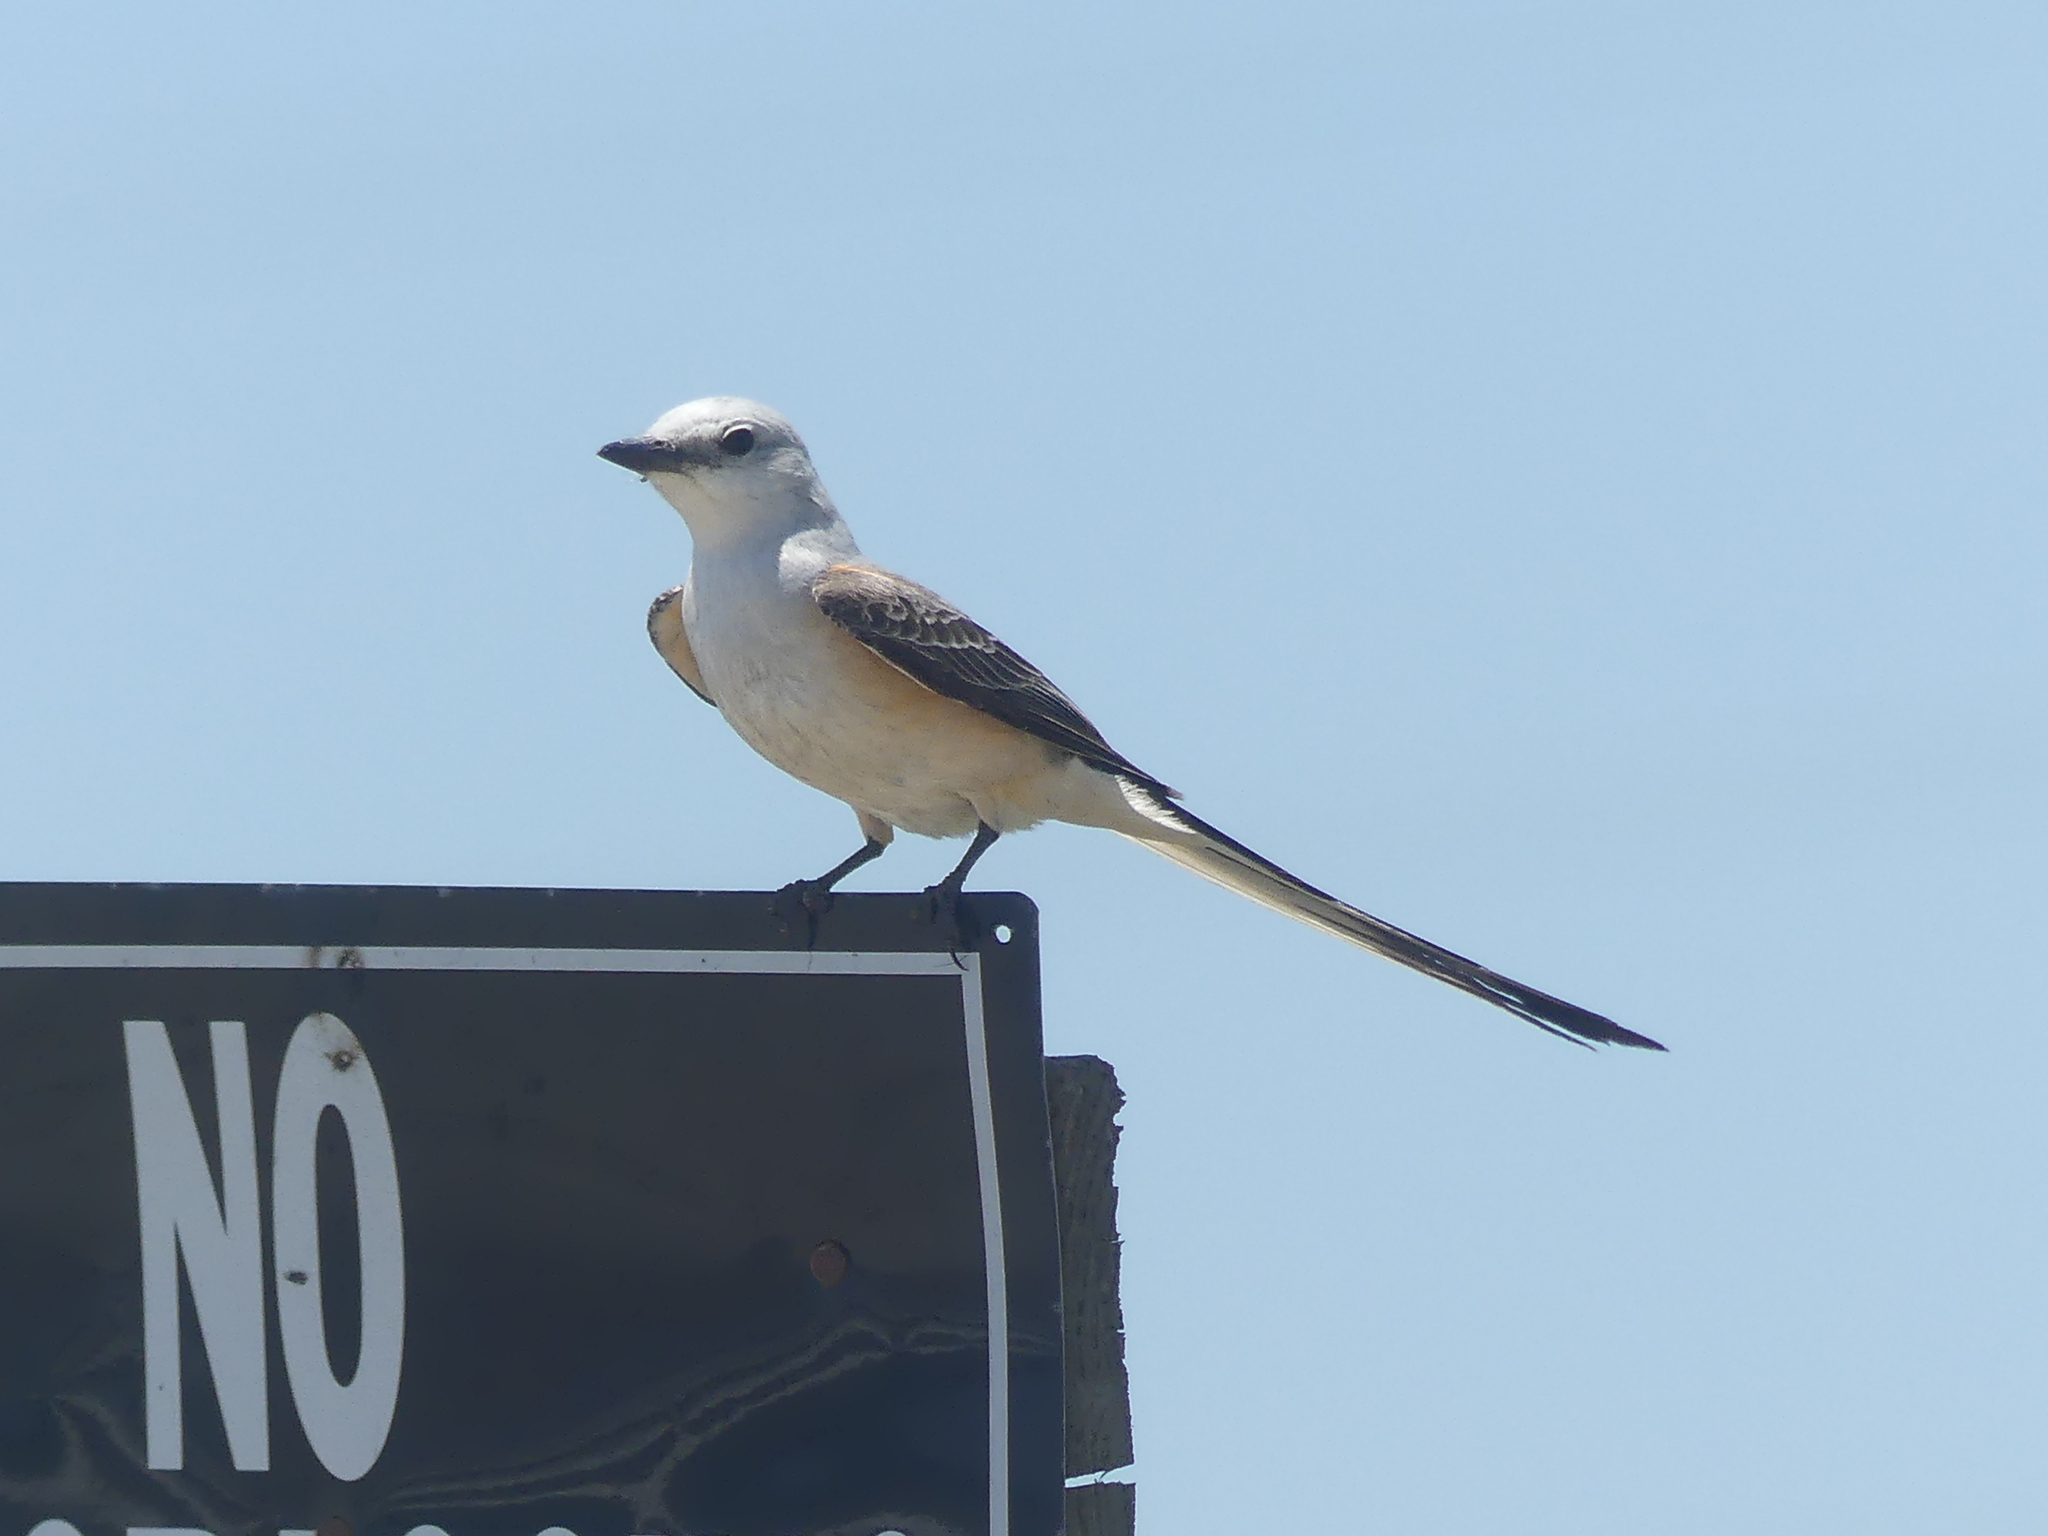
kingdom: Animalia
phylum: Chordata
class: Aves
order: Passeriformes
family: Tyrannidae
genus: Tyrannus
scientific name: Tyrannus forficatus
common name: Scissor-tailed flycatcher
